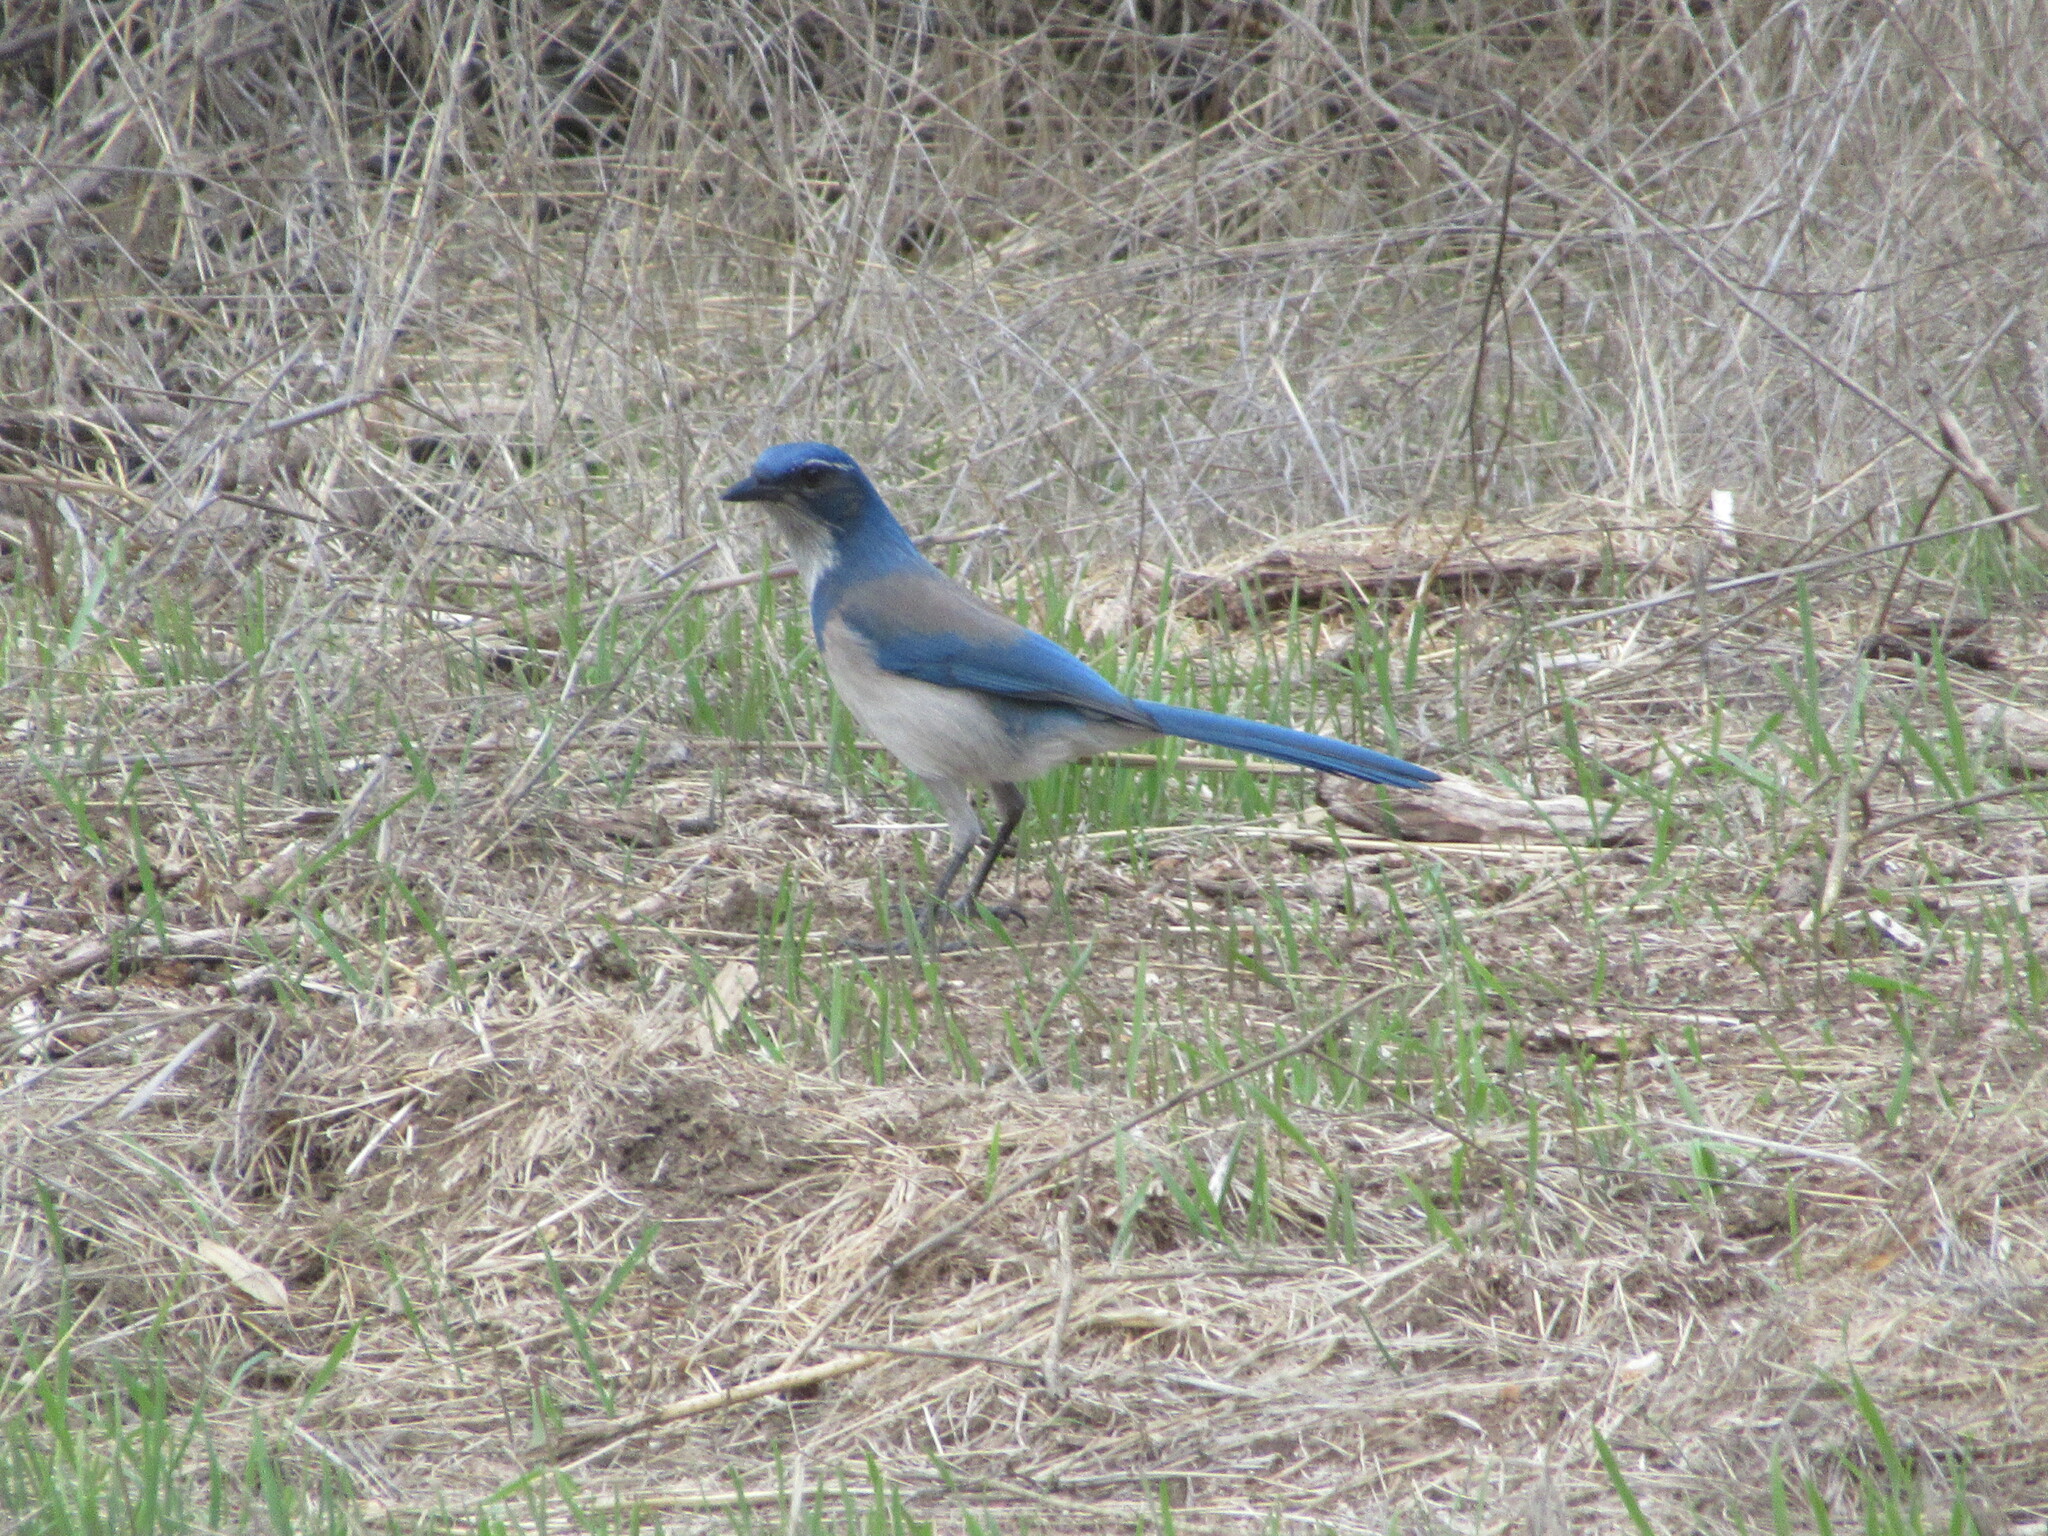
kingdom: Animalia
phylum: Chordata
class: Aves
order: Passeriformes
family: Corvidae
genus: Aphelocoma
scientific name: Aphelocoma californica
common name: California scrub-jay
